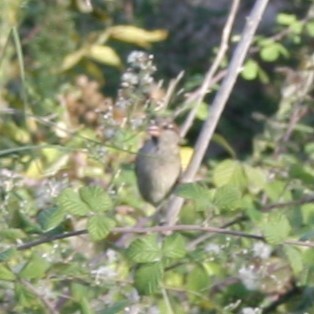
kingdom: Animalia
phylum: Chordata
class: Aves
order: Passeriformes
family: Passeridae
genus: Passer
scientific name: Passer domesticus
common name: House sparrow
